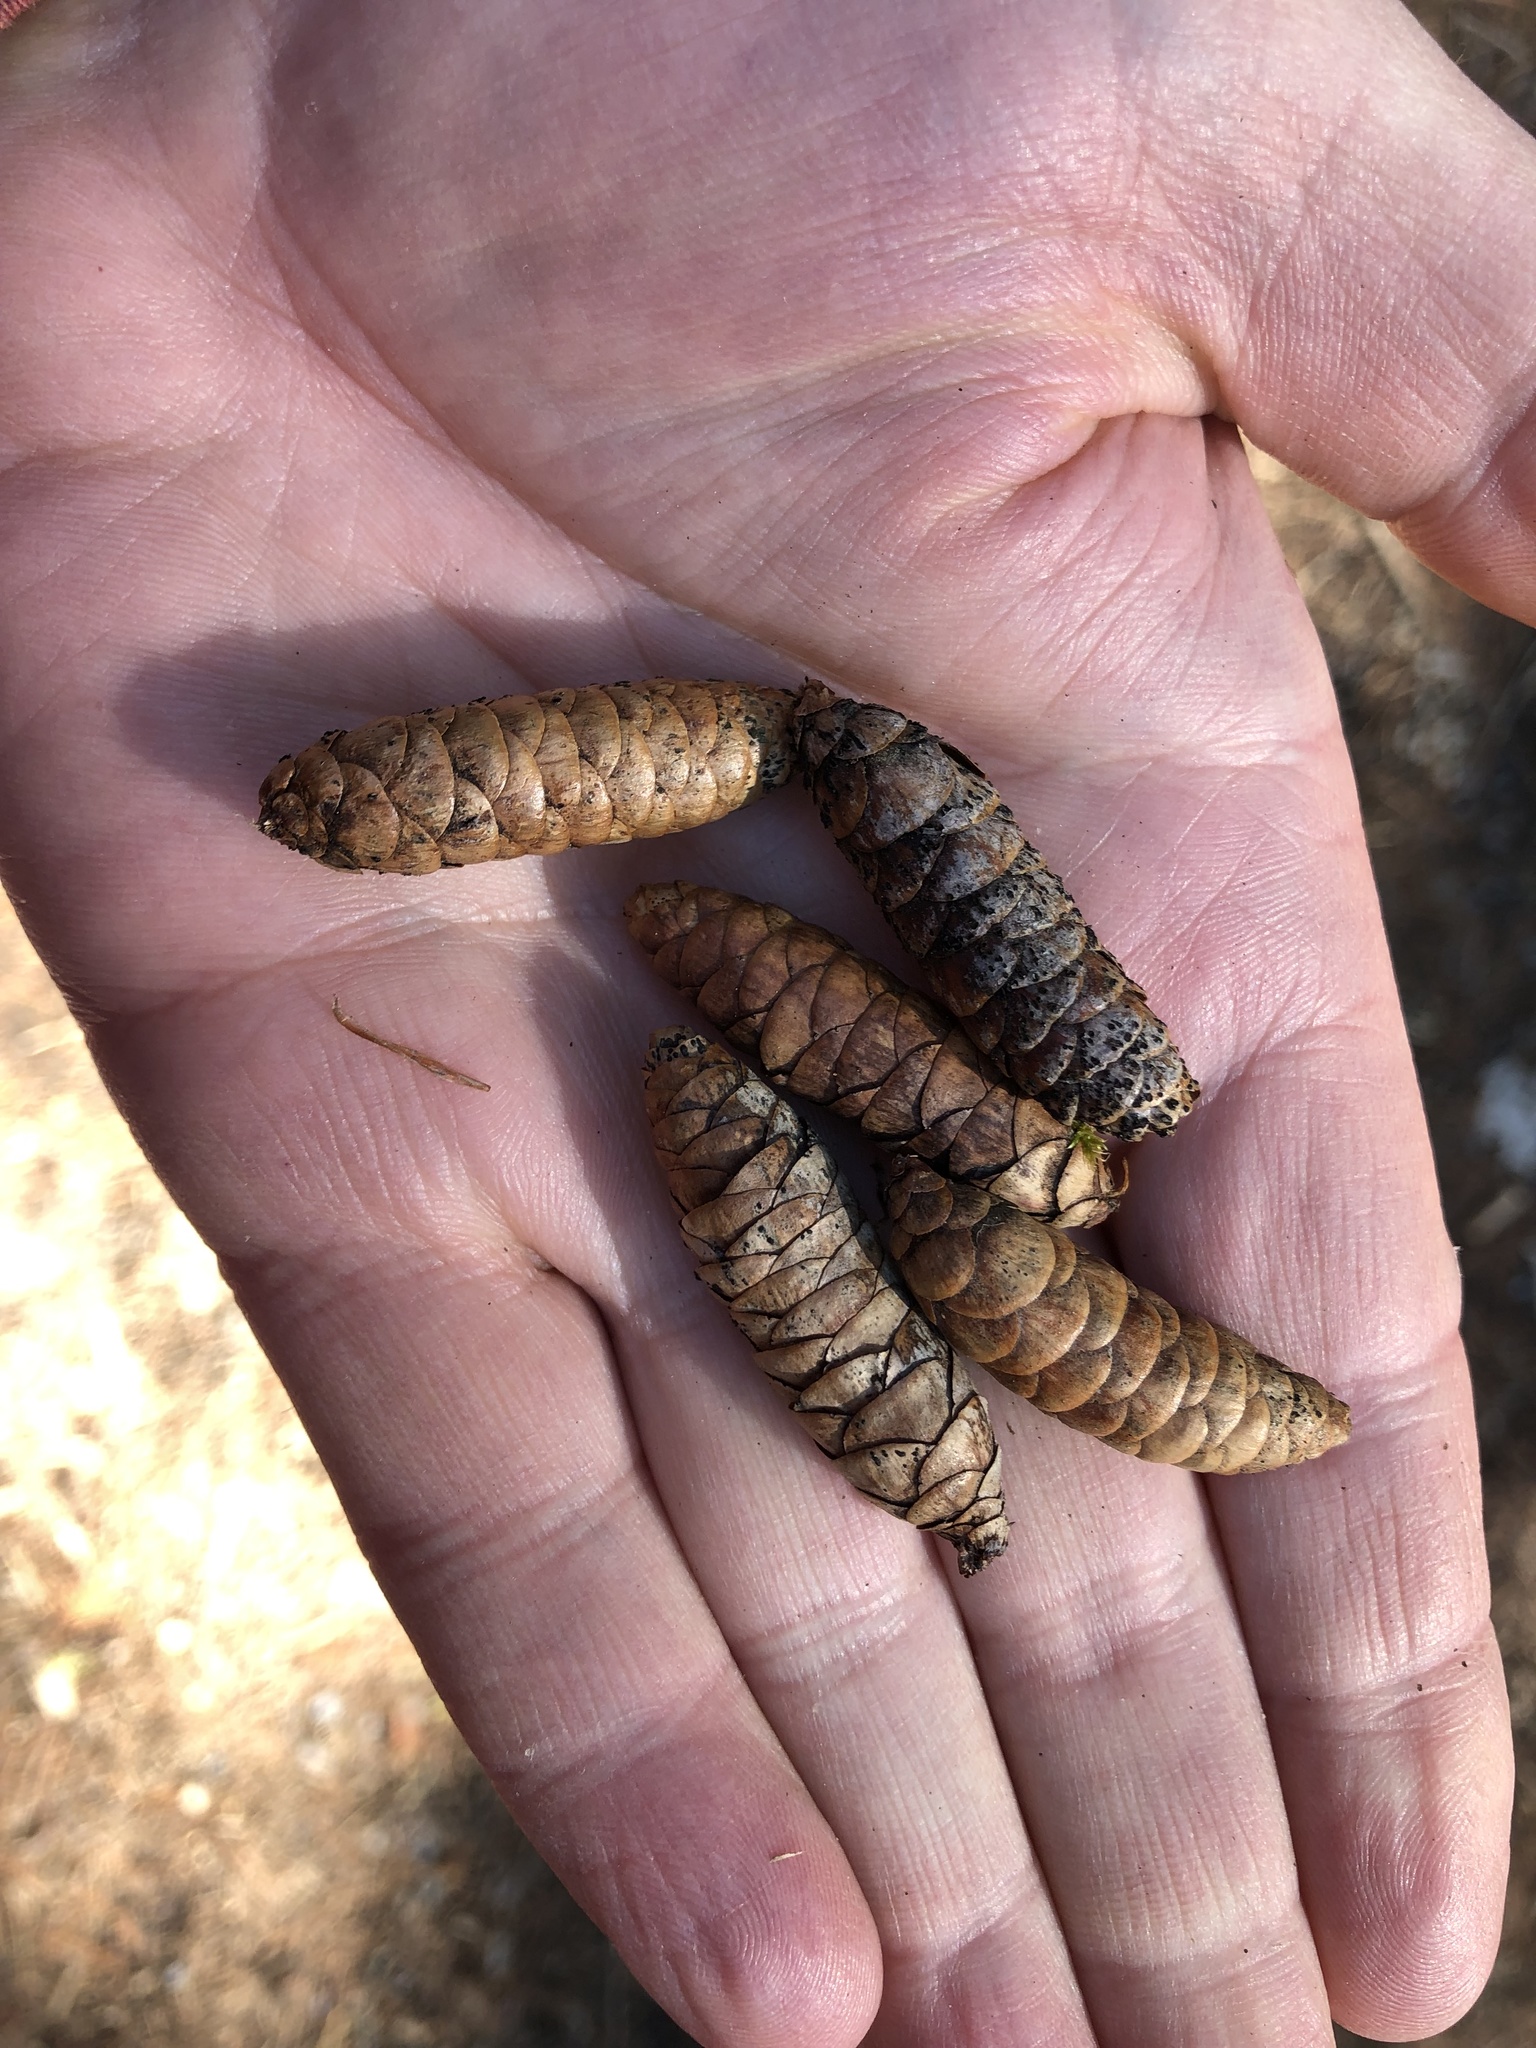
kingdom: Plantae
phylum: Tracheophyta
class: Pinopsida
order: Pinales
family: Pinaceae
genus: Picea
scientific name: Picea glauca
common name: White spruce
